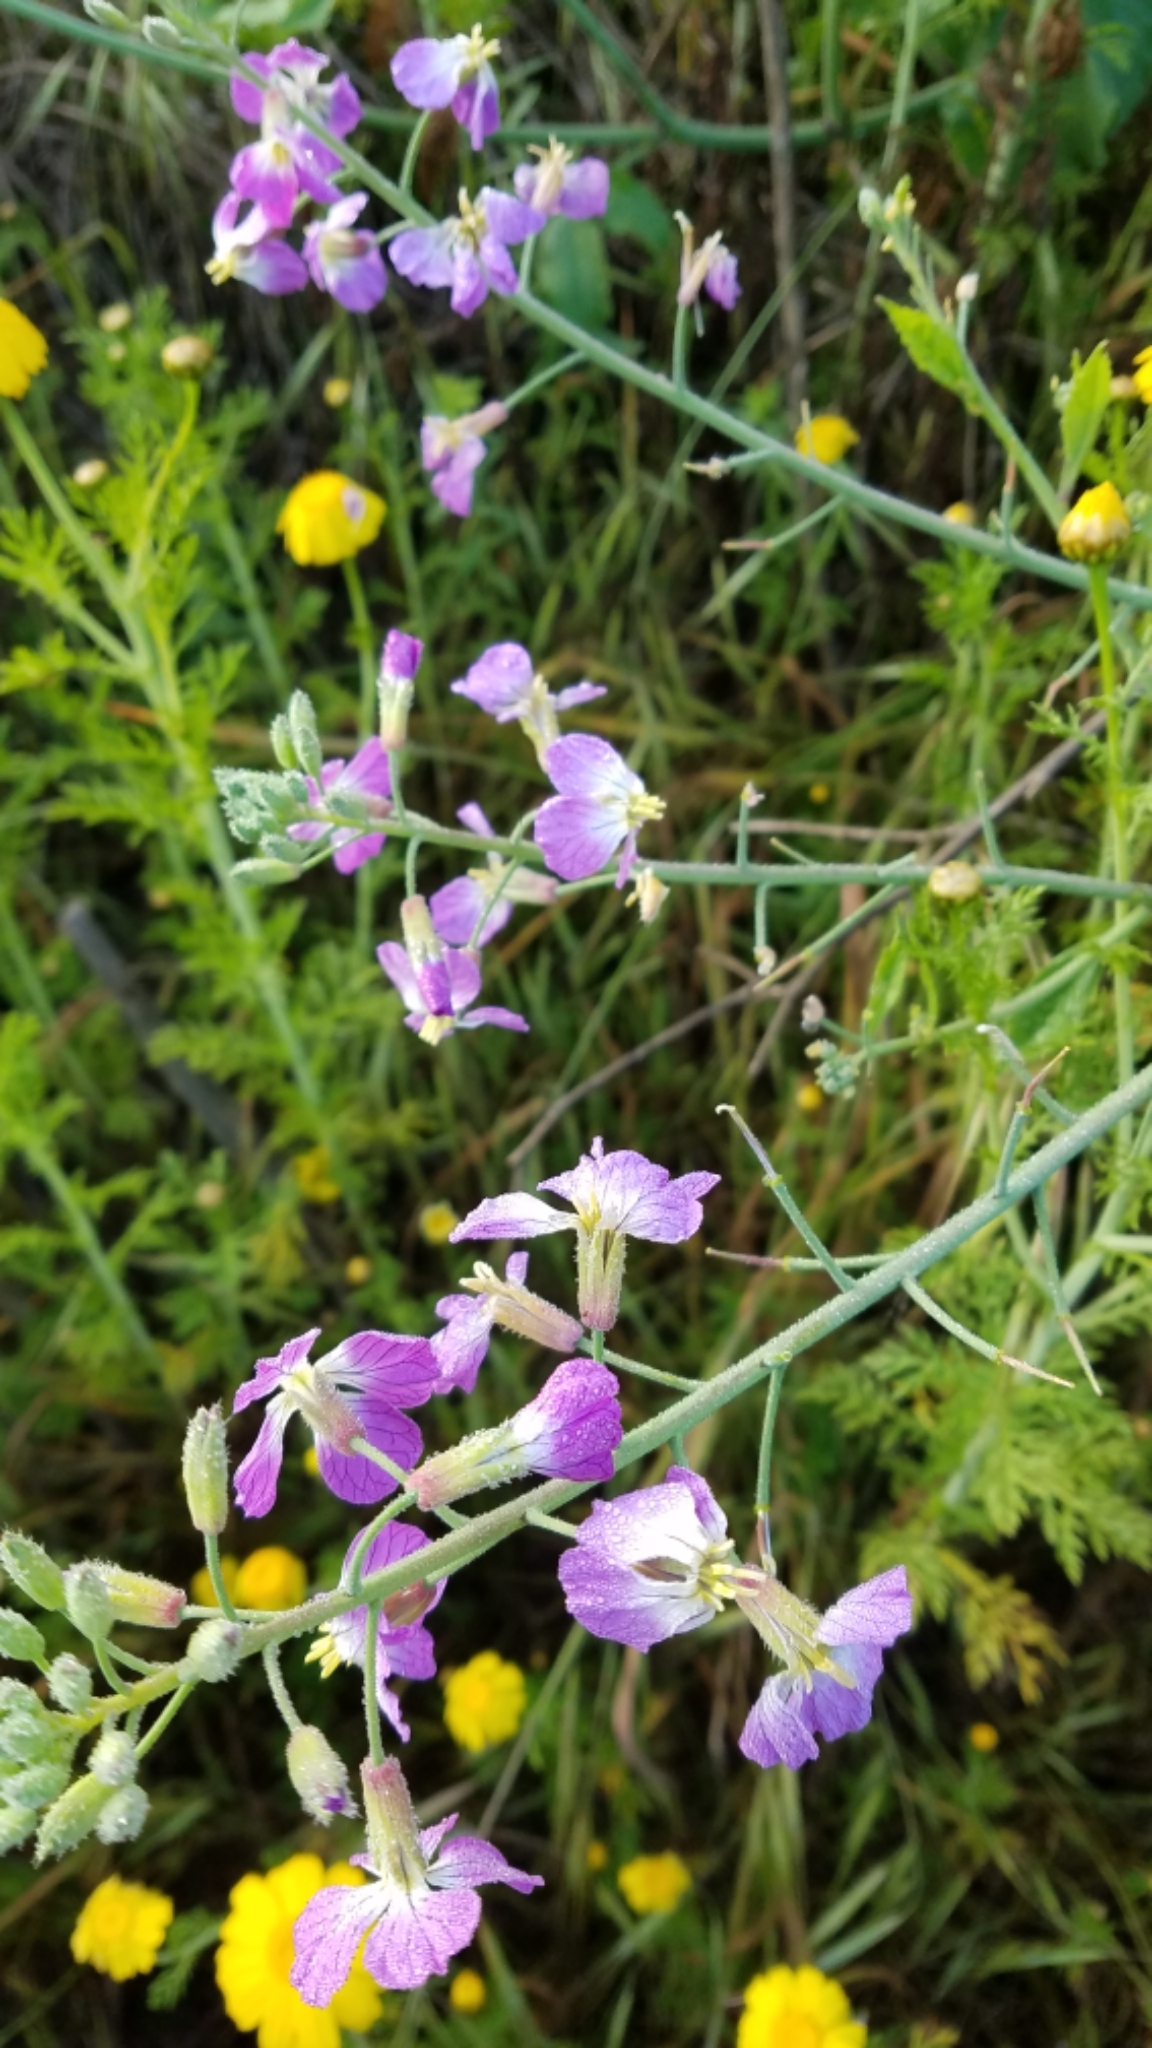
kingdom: Plantae
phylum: Tracheophyta
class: Magnoliopsida
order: Brassicales
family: Brassicaceae
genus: Raphanus
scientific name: Raphanus sativus
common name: Cultivated radish
